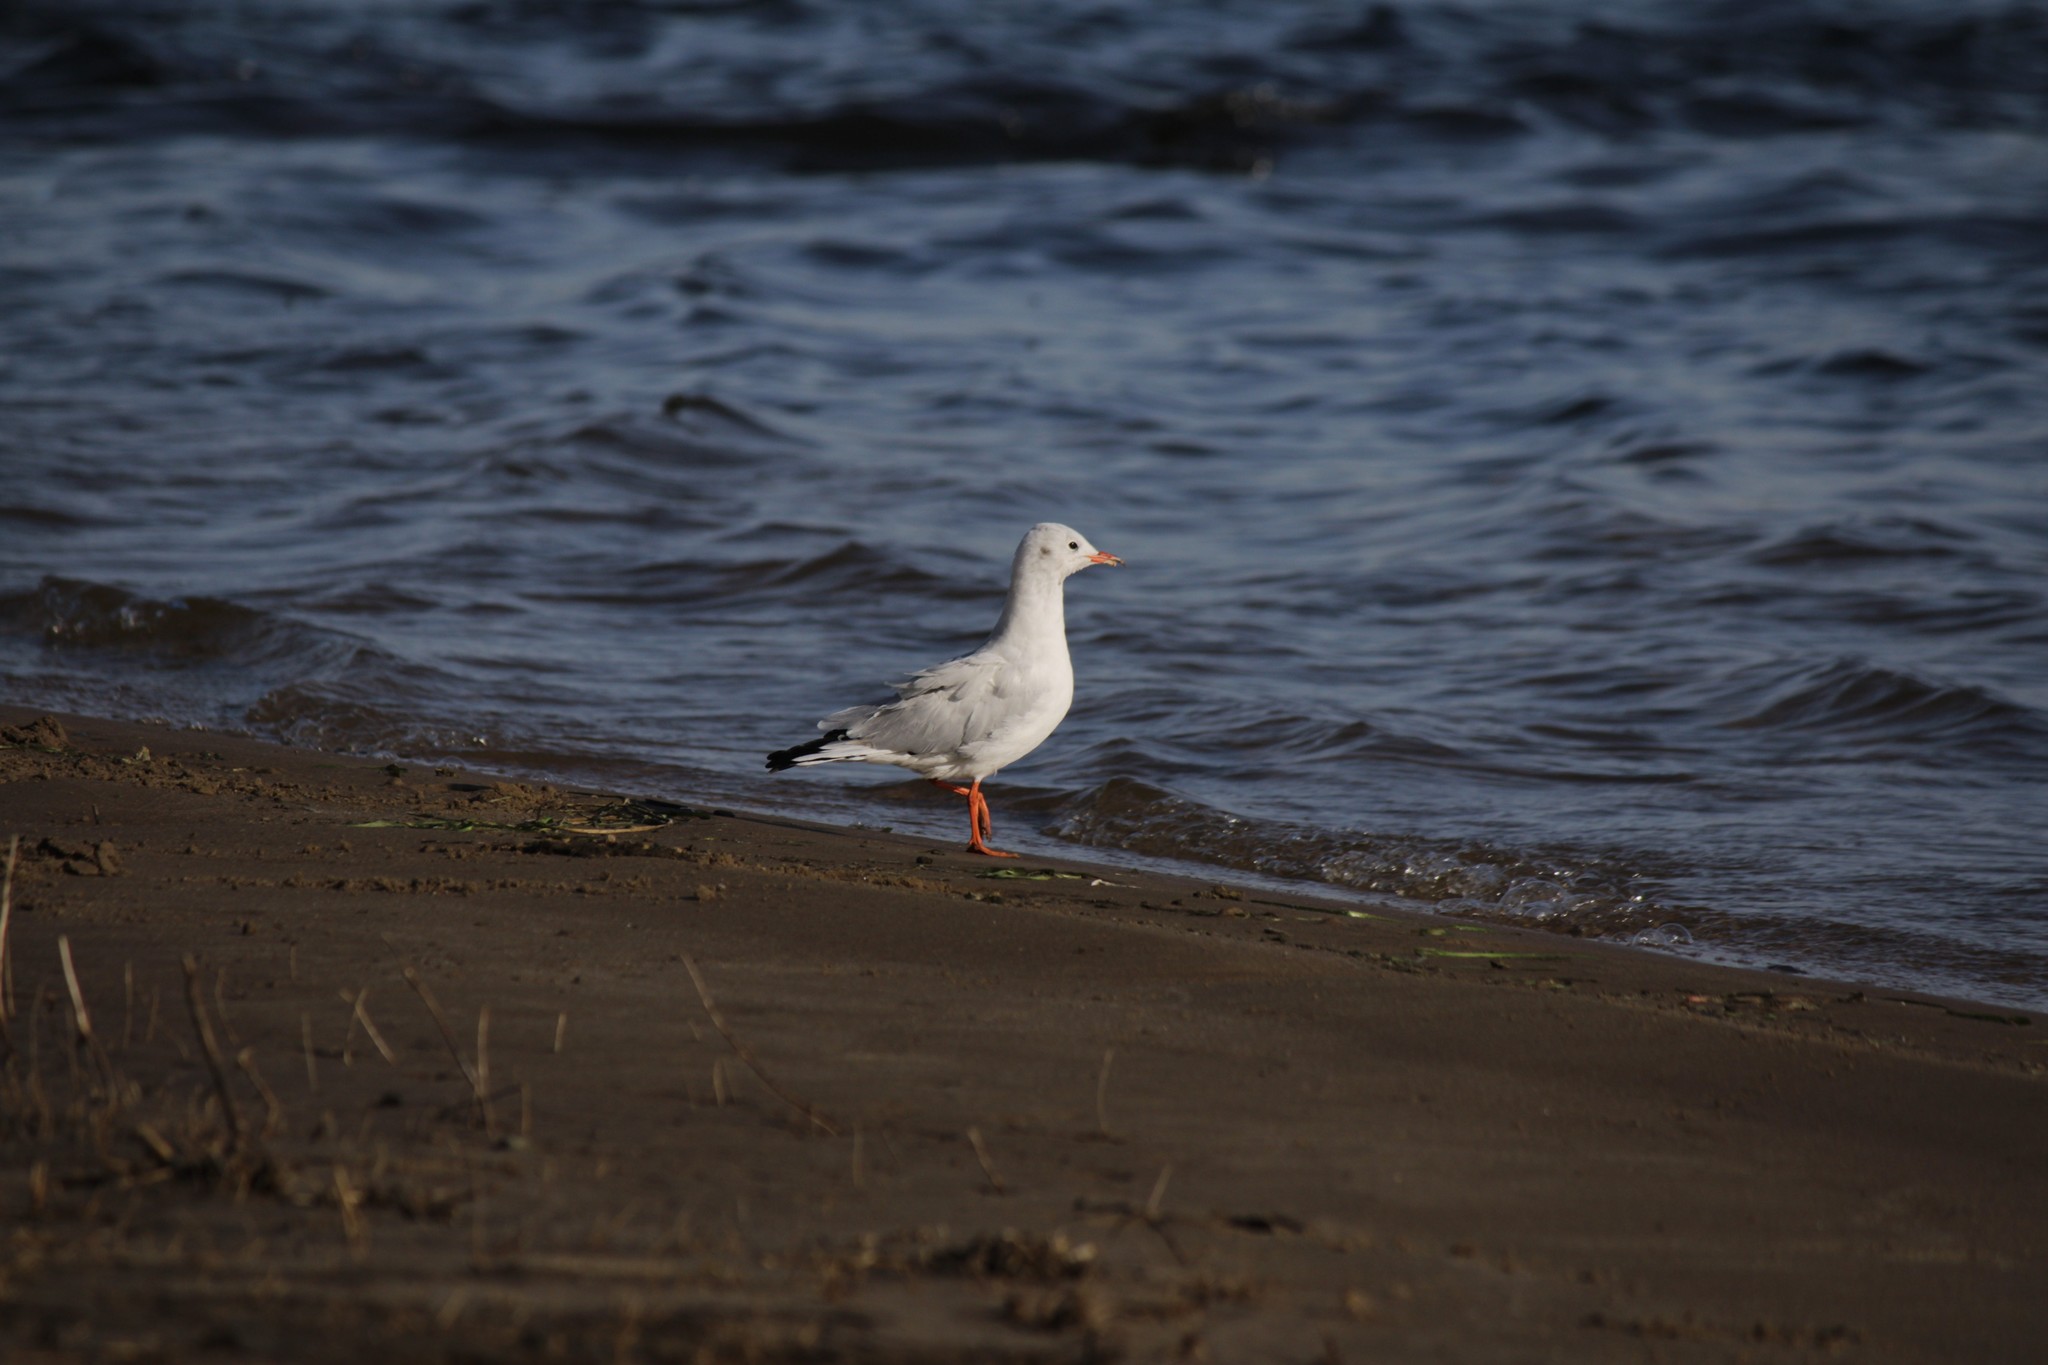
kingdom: Animalia
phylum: Chordata
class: Aves
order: Charadriiformes
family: Laridae
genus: Chroicocephalus
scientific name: Chroicocephalus ridibundus
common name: Black-headed gull
